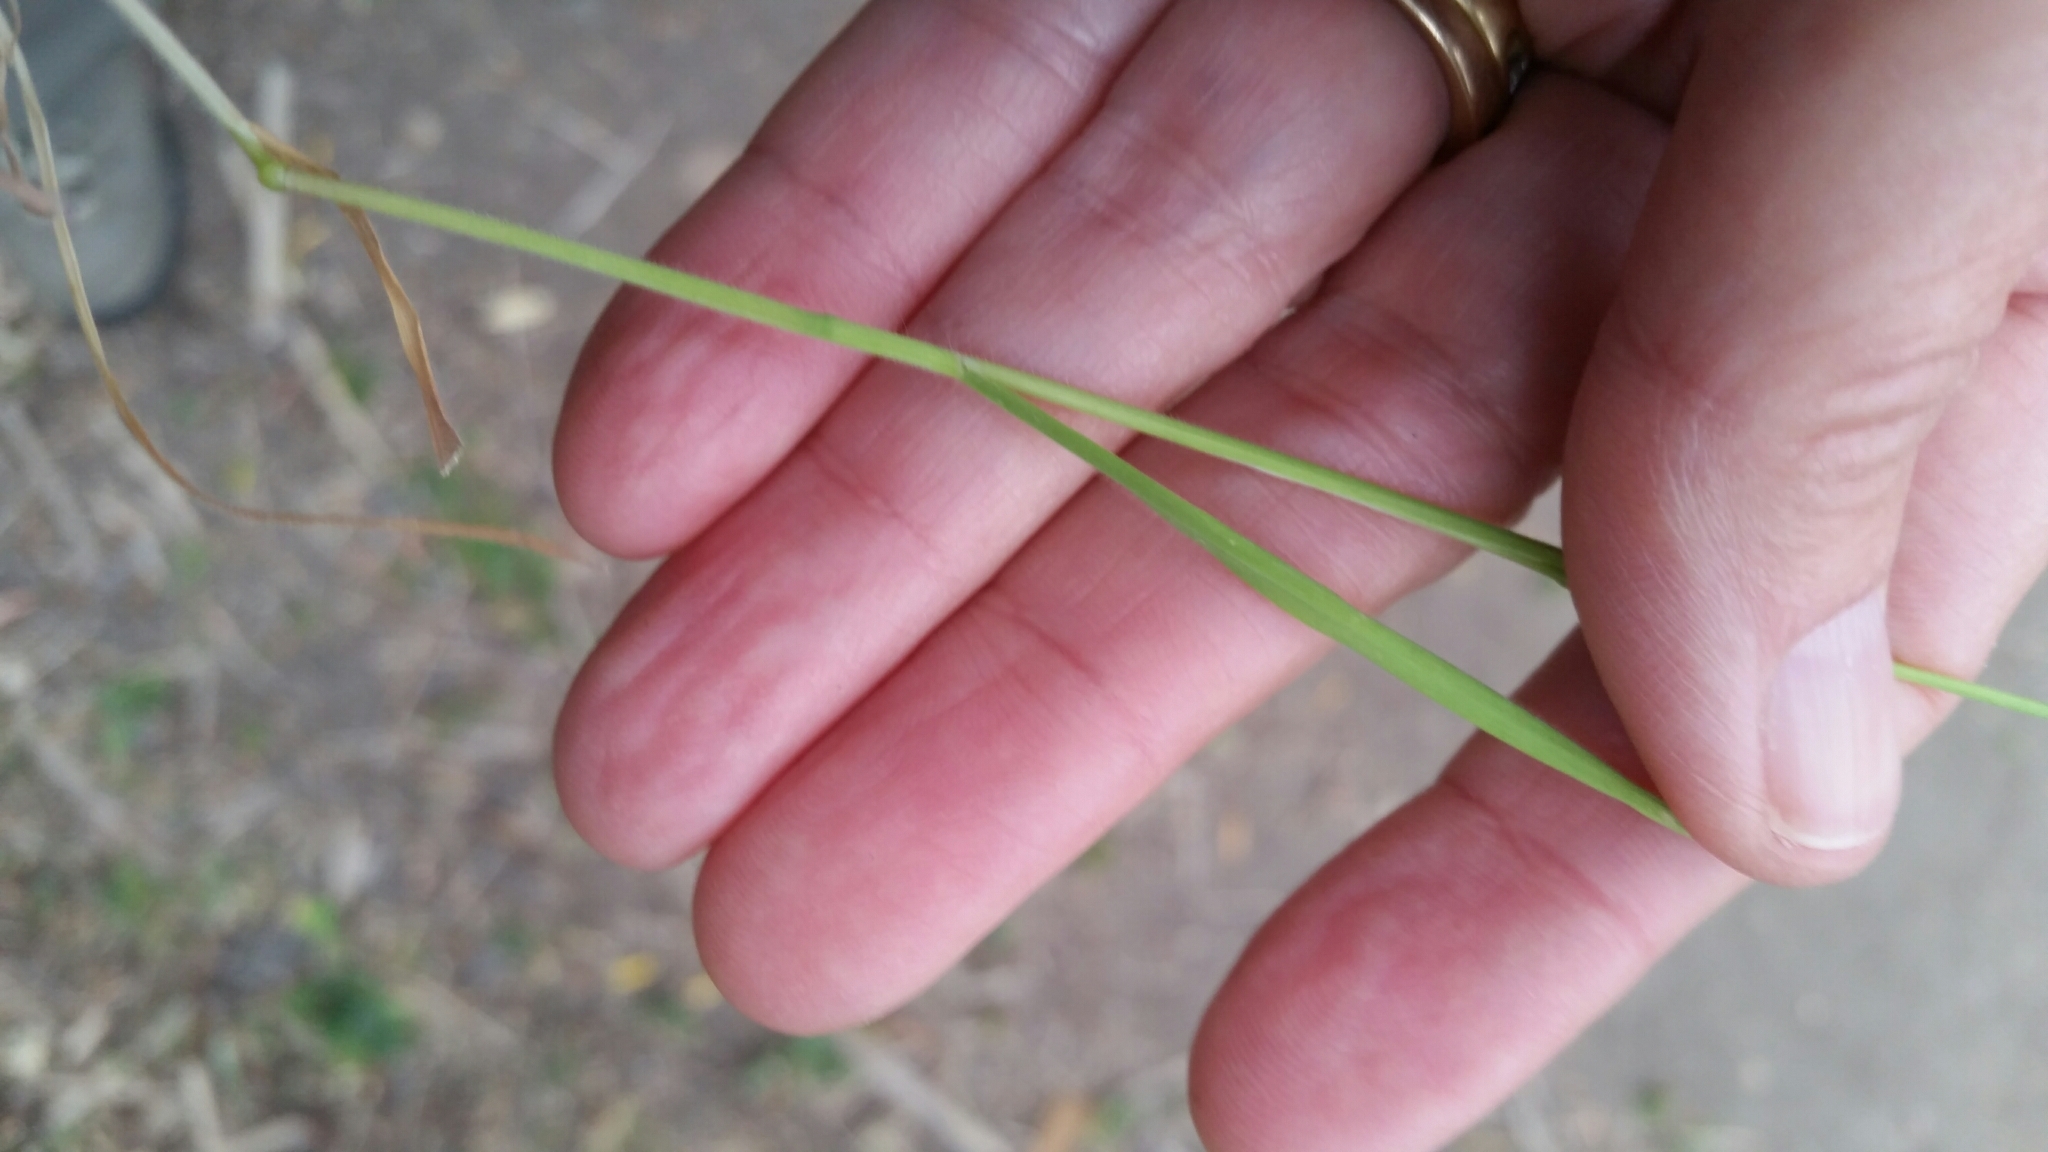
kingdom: Plantae
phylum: Tracheophyta
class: Liliopsida
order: Poales
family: Poaceae
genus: Bromus
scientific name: Bromus diandrus
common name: Ripgut brome
